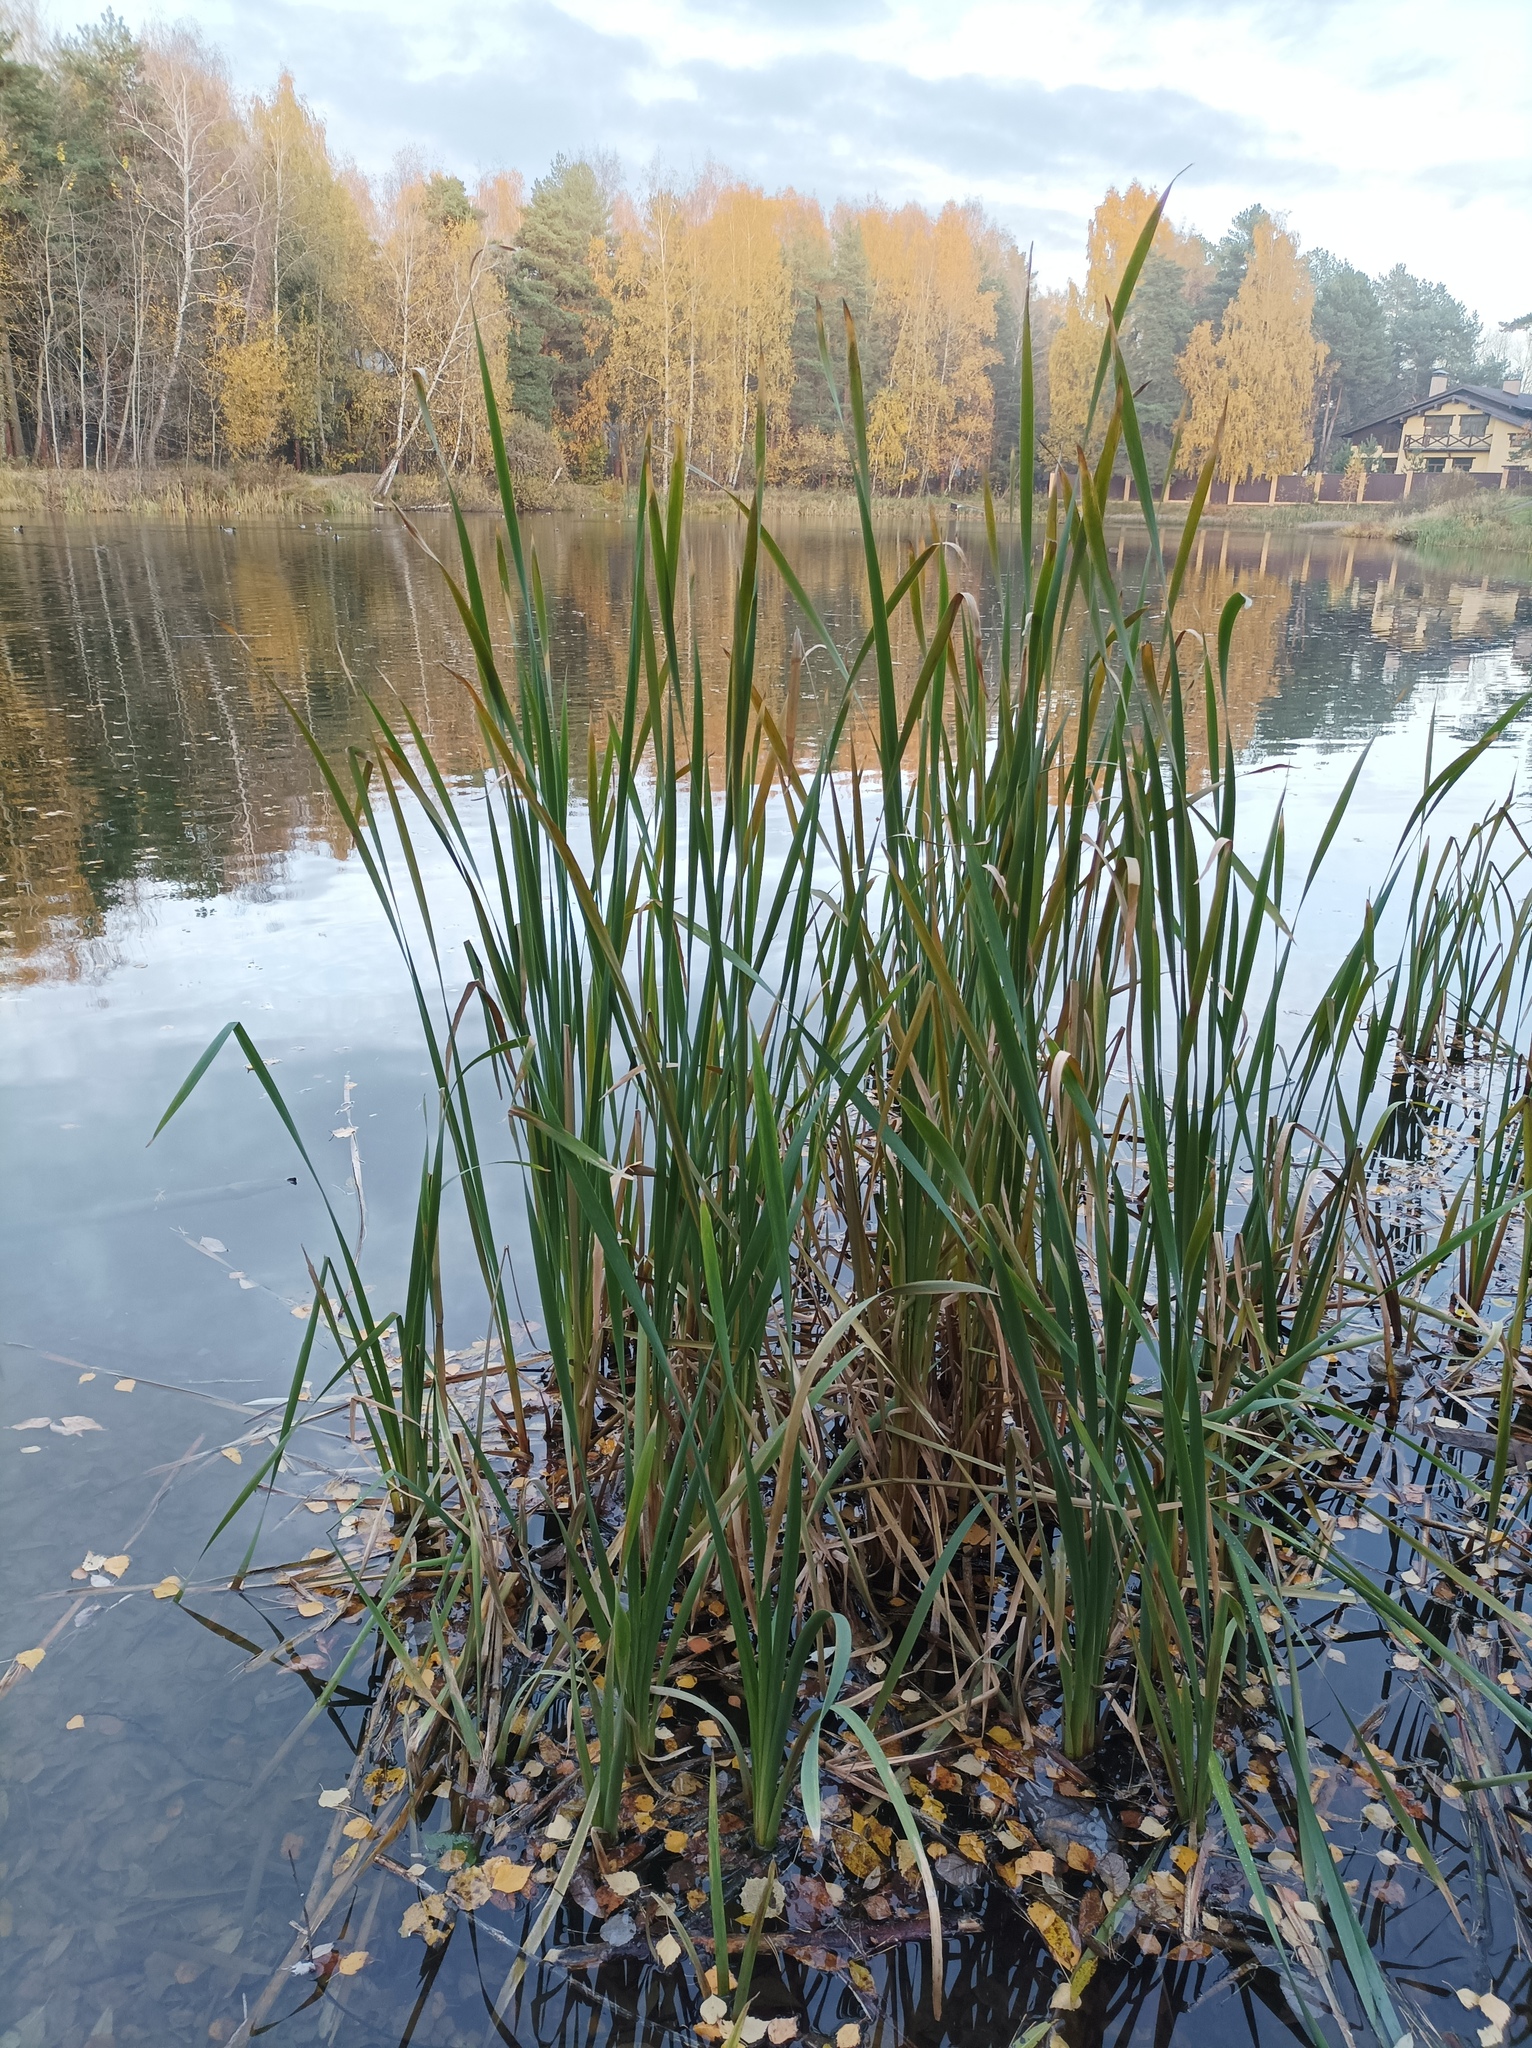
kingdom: Plantae
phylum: Tracheophyta
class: Liliopsida
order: Poales
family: Typhaceae
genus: Typha
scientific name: Typha latifolia
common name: Broadleaf cattail
